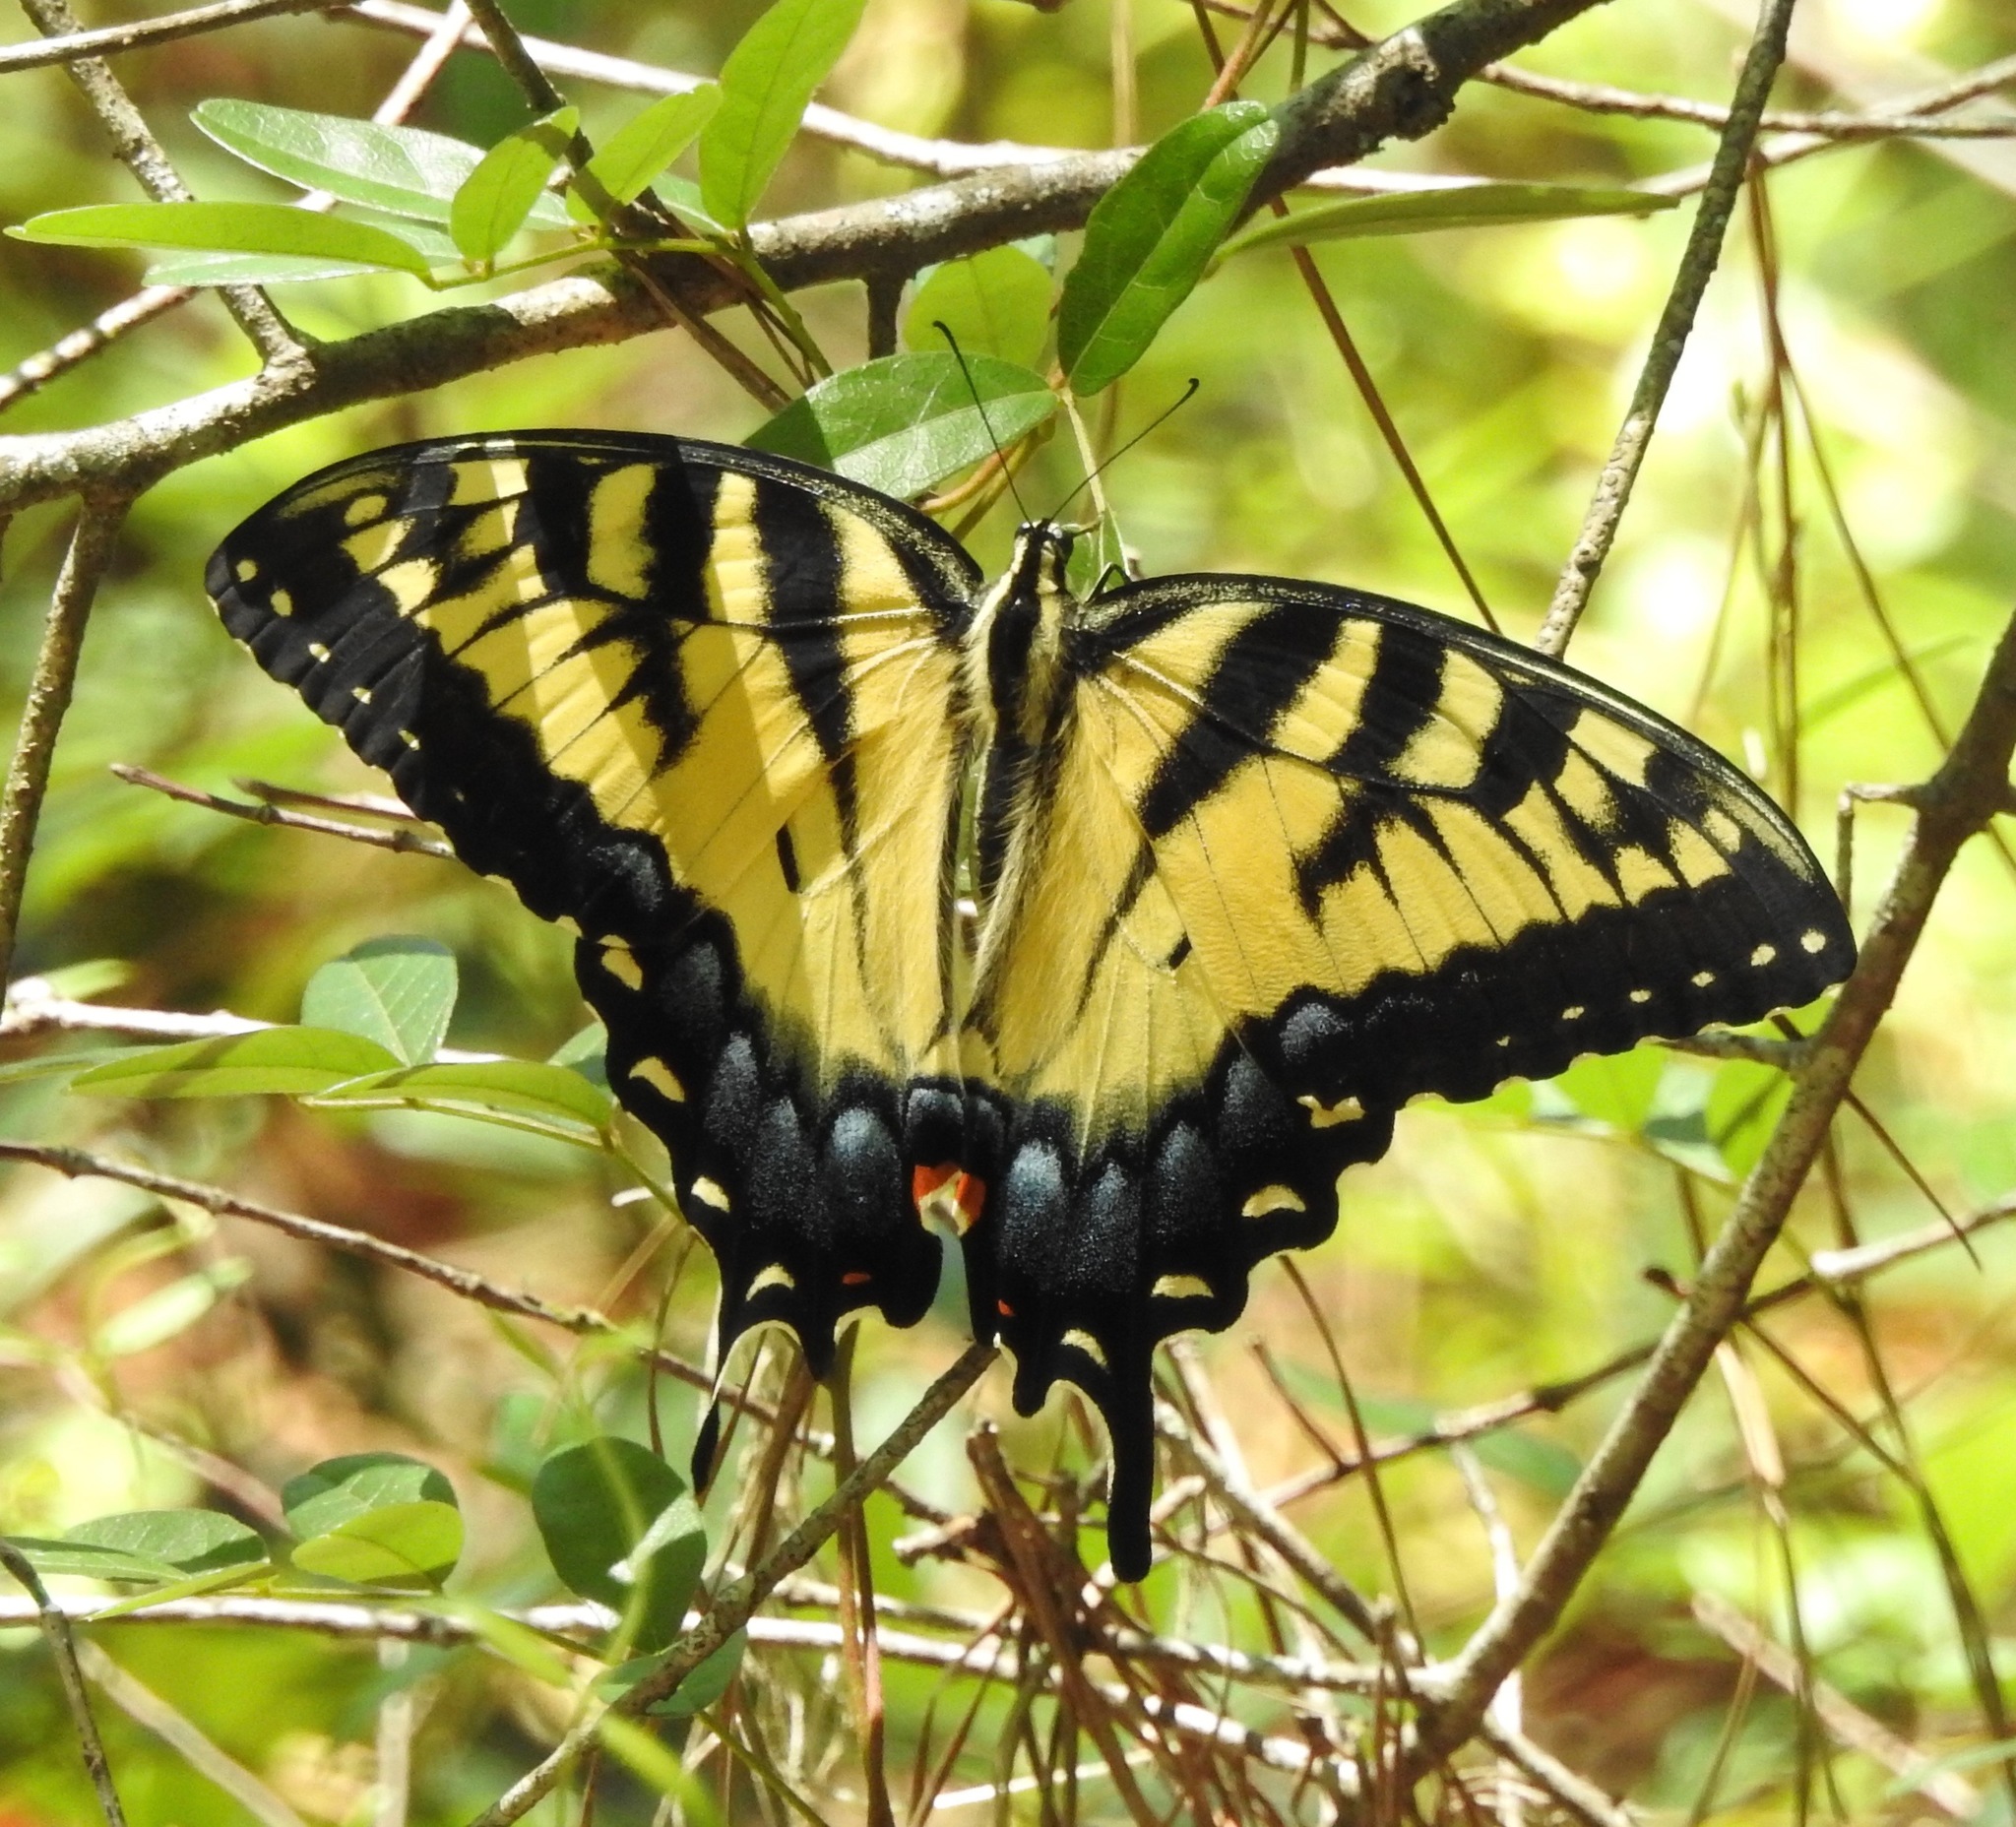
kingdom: Animalia
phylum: Arthropoda
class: Insecta
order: Lepidoptera
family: Papilionidae
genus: Papilio
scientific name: Papilio glaucus
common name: Tiger swallowtail
